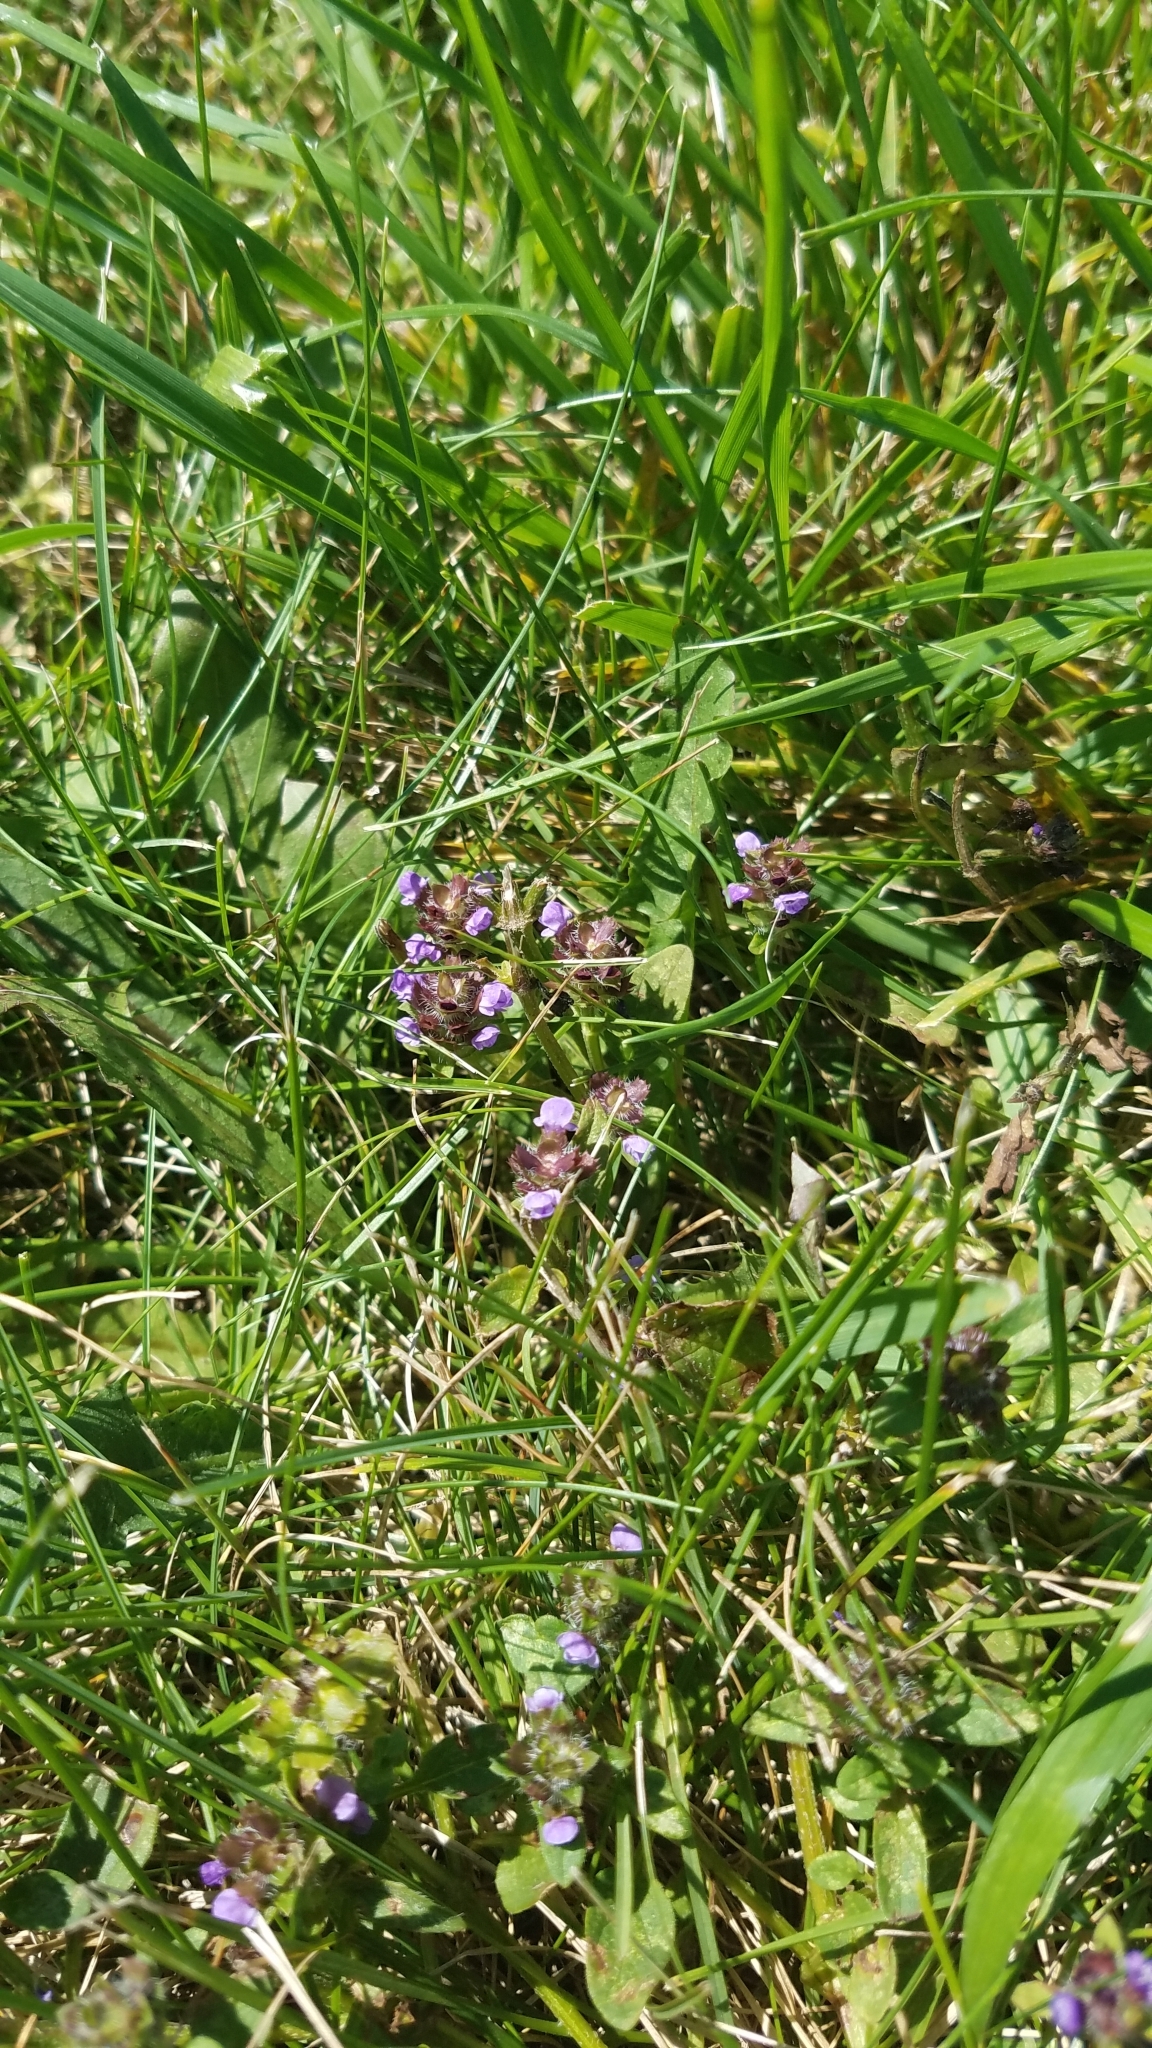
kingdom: Plantae
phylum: Tracheophyta
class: Magnoliopsida
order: Lamiales
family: Lamiaceae
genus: Prunella
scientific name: Prunella vulgaris
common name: Heal-all
